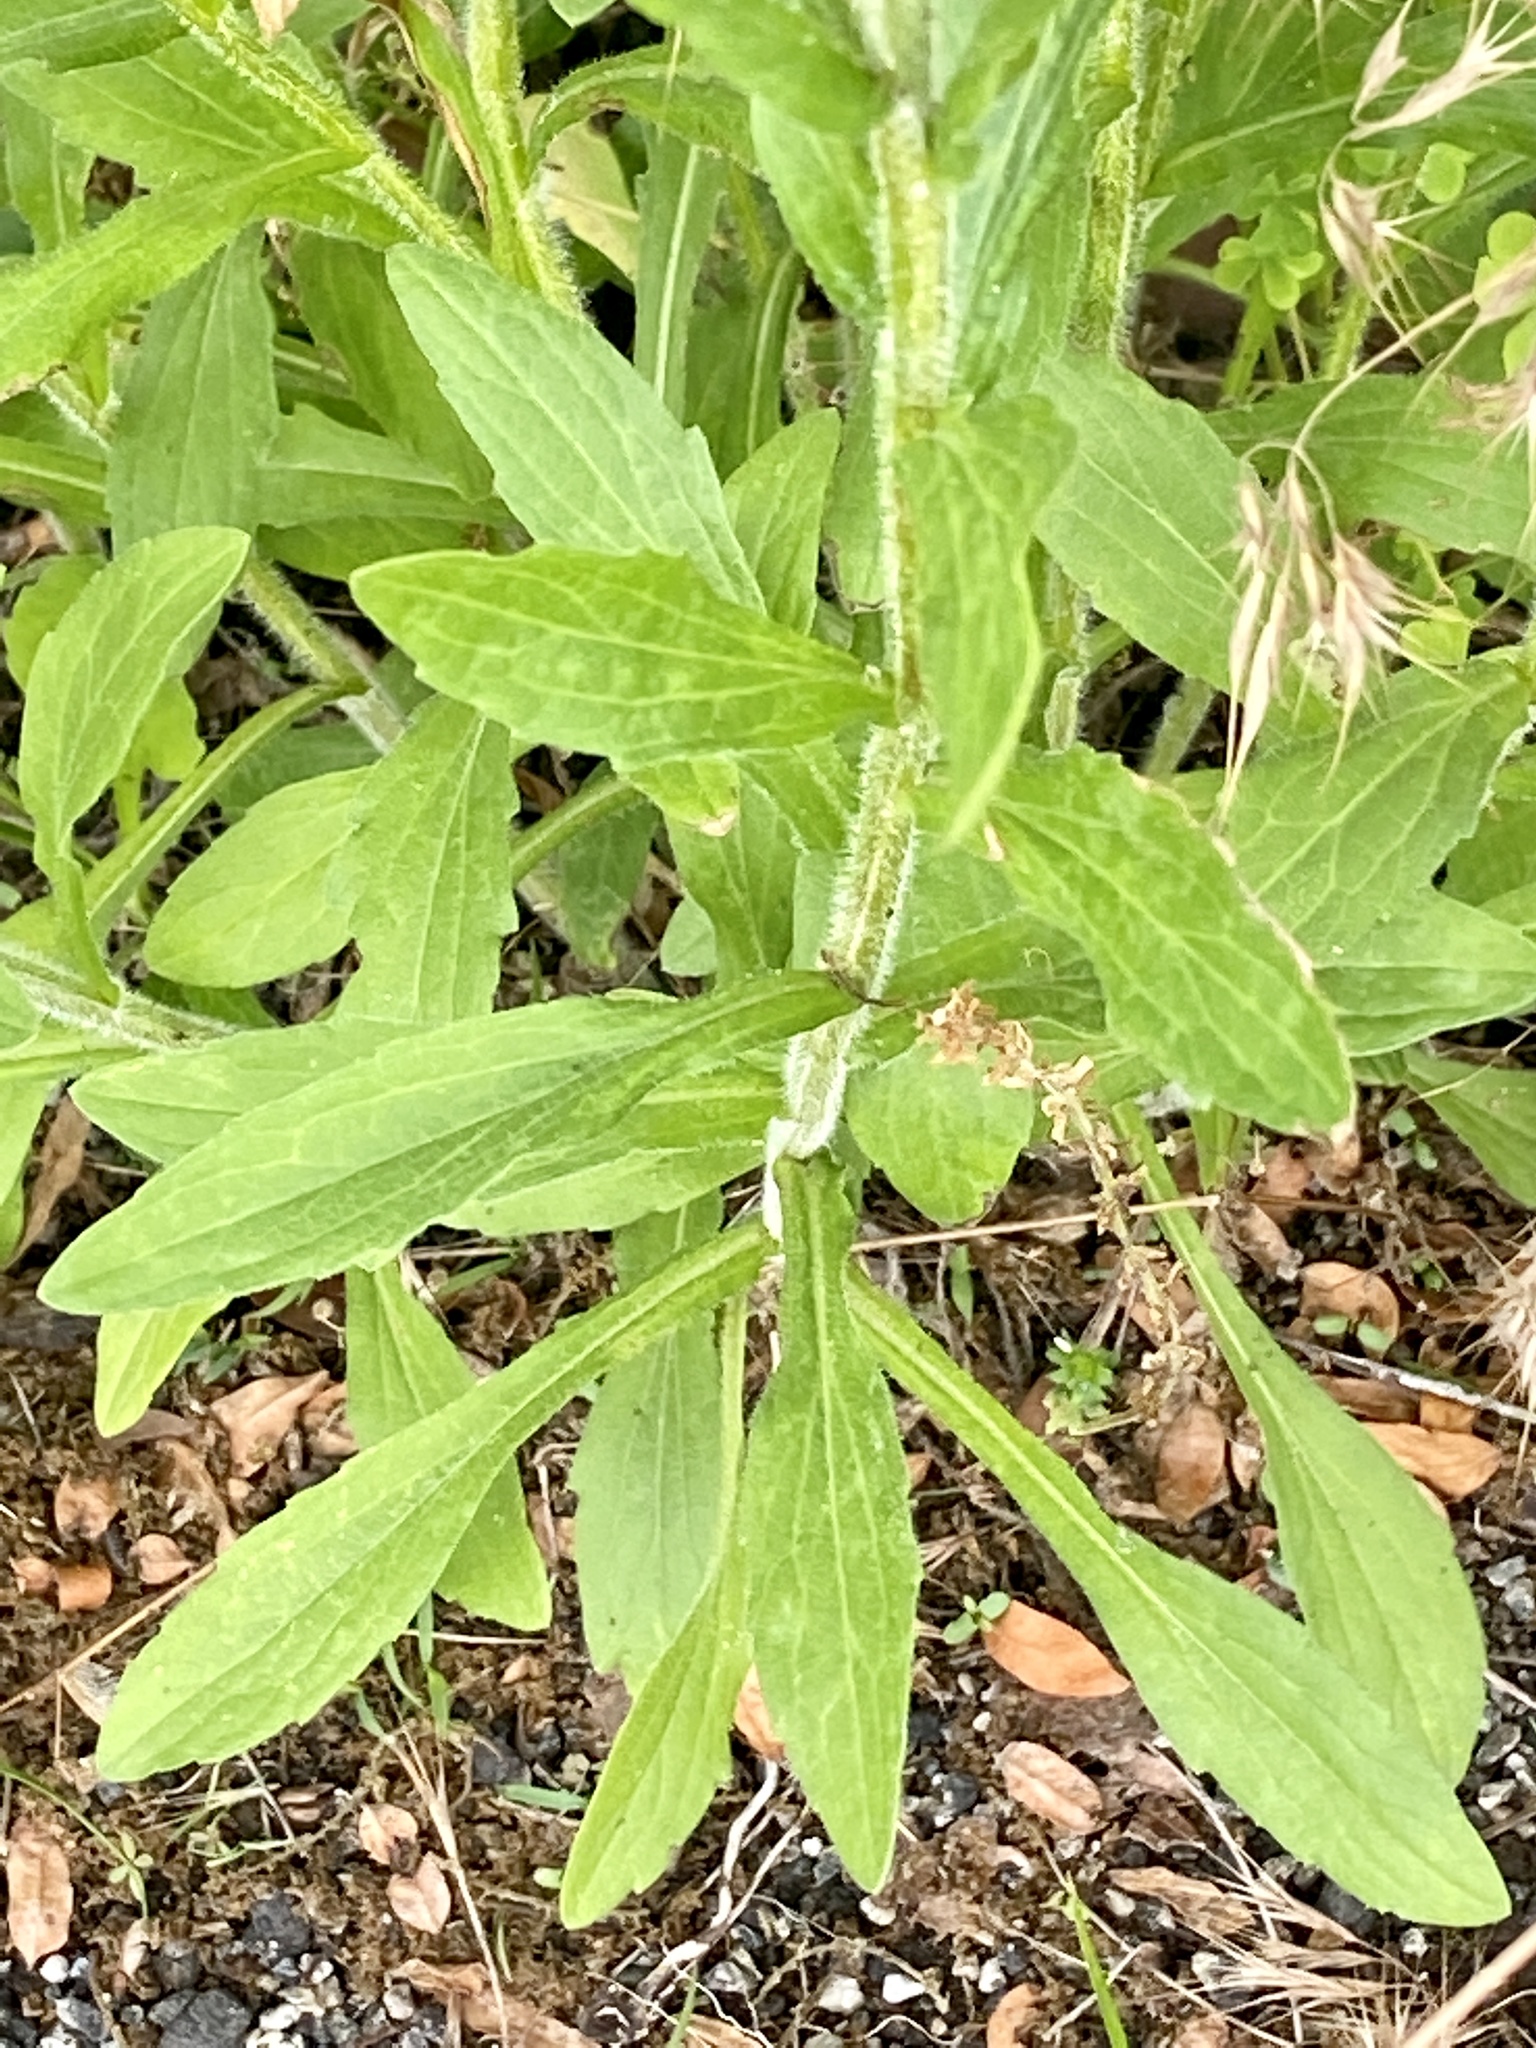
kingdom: Plantae
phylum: Tracheophyta
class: Magnoliopsida
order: Asterales
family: Asteraceae
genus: Erigeron
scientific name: Erigeron annuus
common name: Tall fleabane
